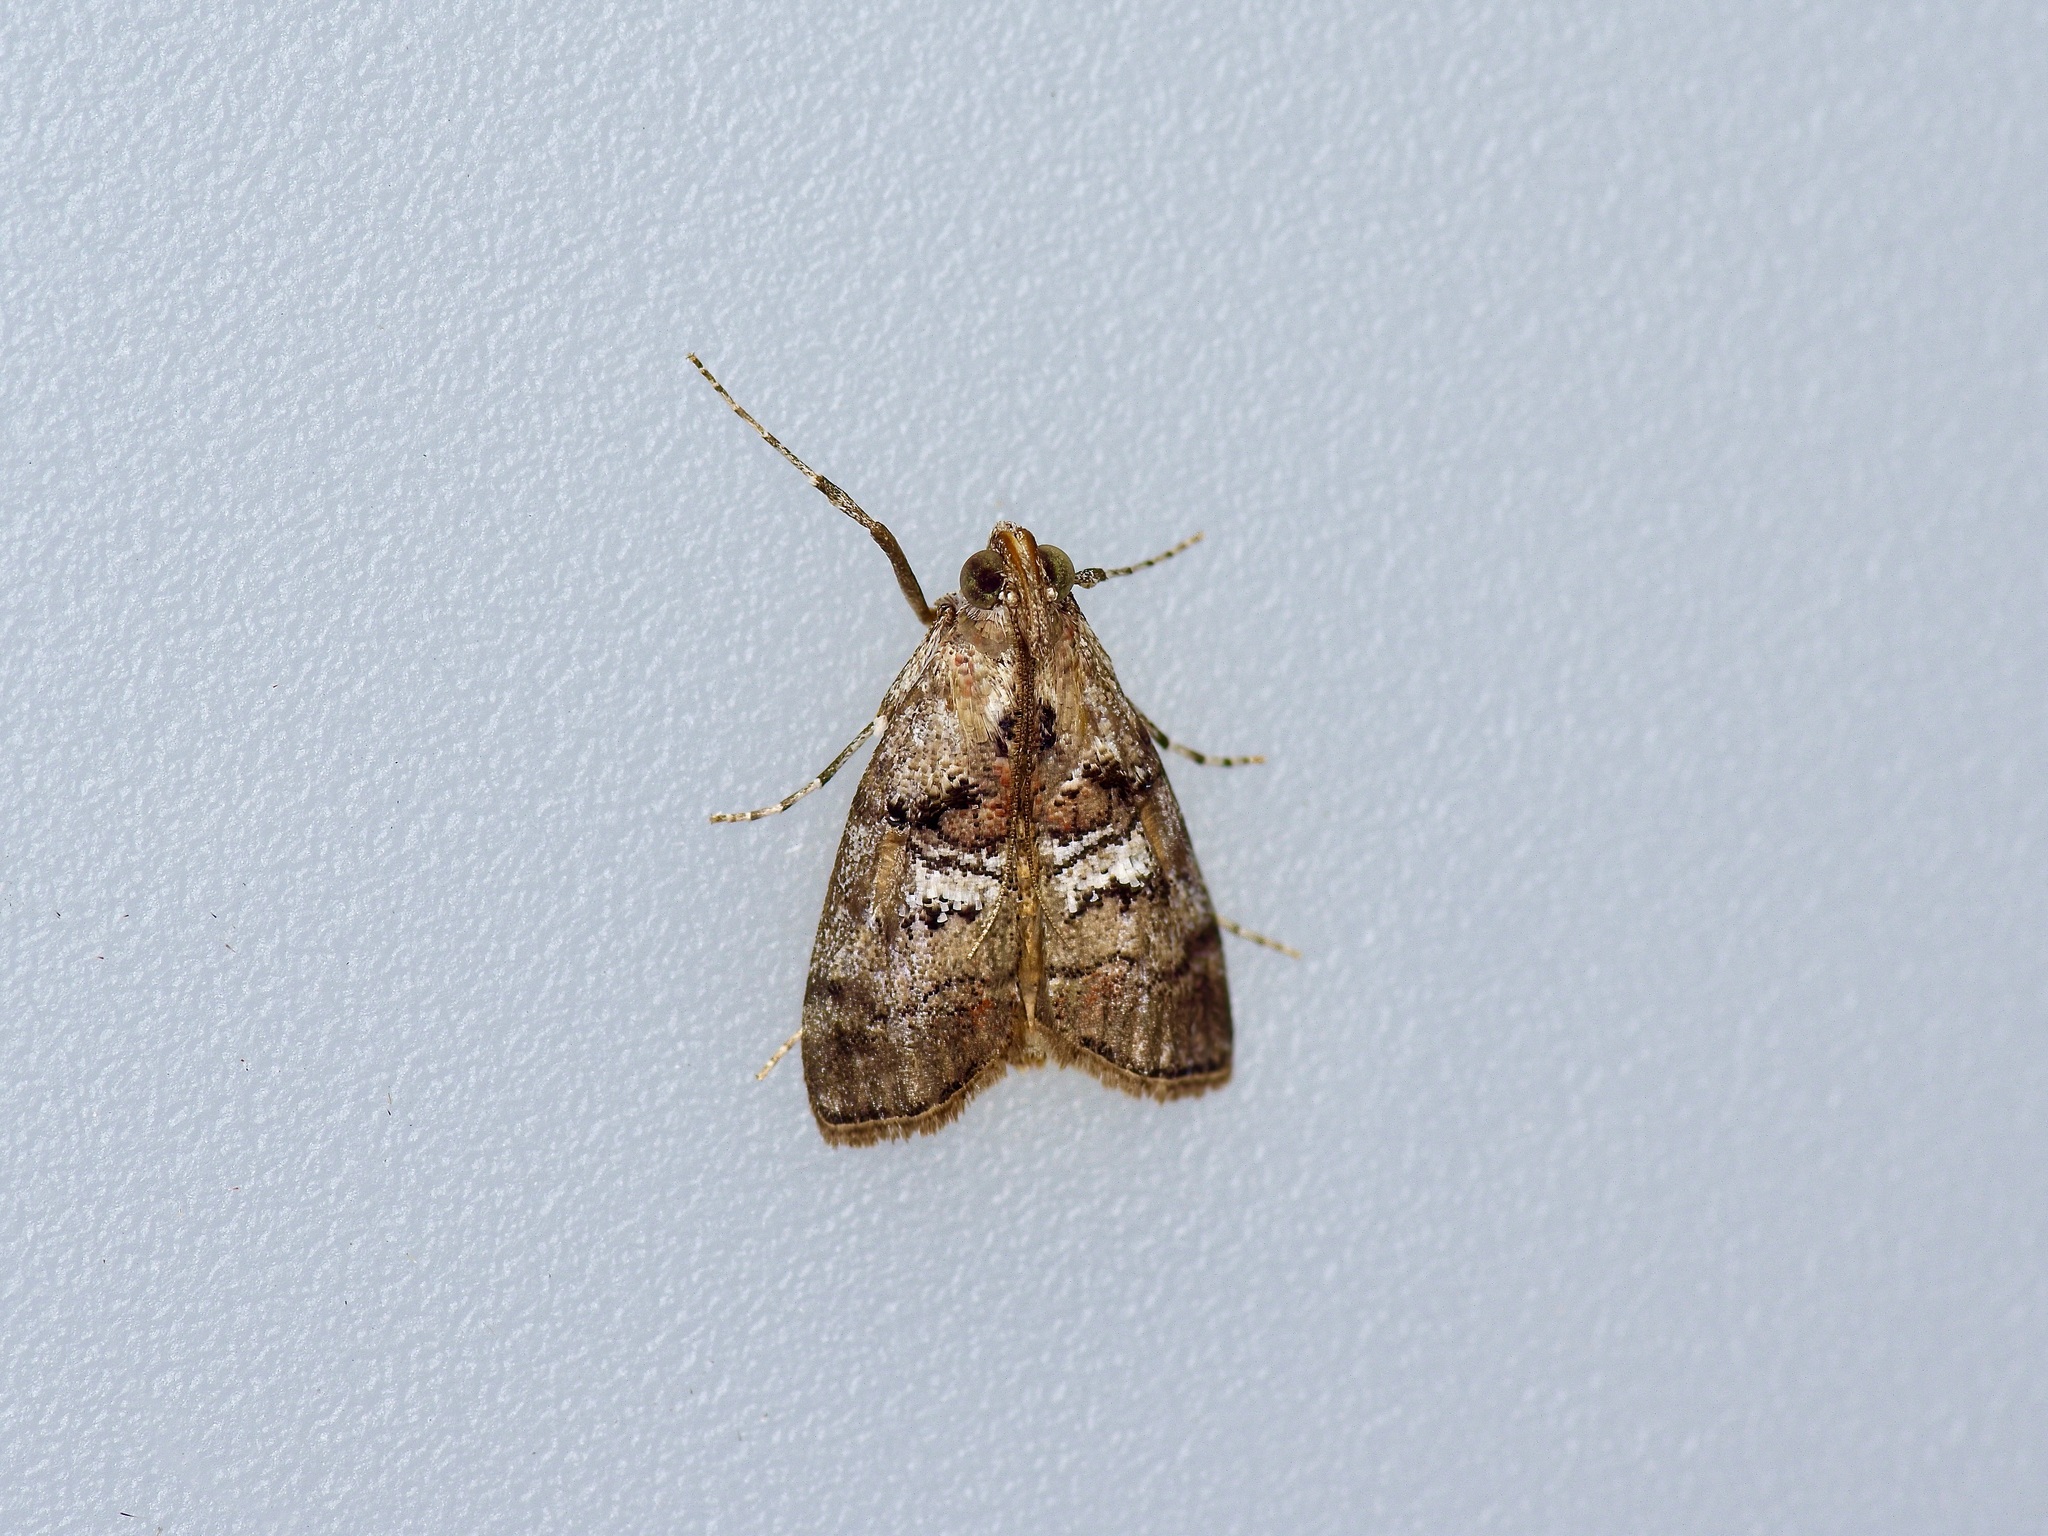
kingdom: Animalia
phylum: Arthropoda
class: Insecta
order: Lepidoptera
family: Pyralidae
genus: Pococera
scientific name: Pococera maritimalis
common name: Gray-banded pococera moth
